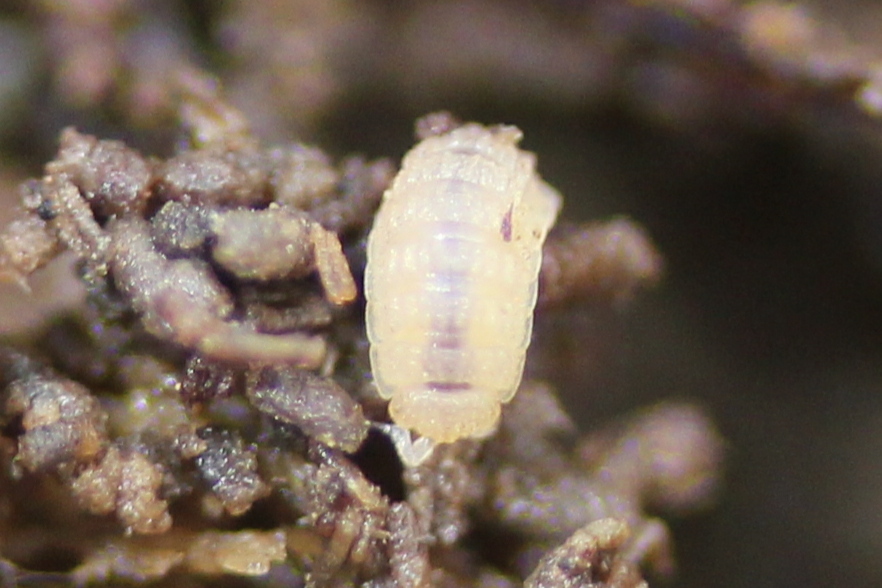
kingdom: Animalia
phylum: Arthropoda
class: Malacostraca
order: Isopoda
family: Trichoniscidae
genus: Haplophthalmus
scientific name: Haplophthalmus danicus
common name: Pillbug
